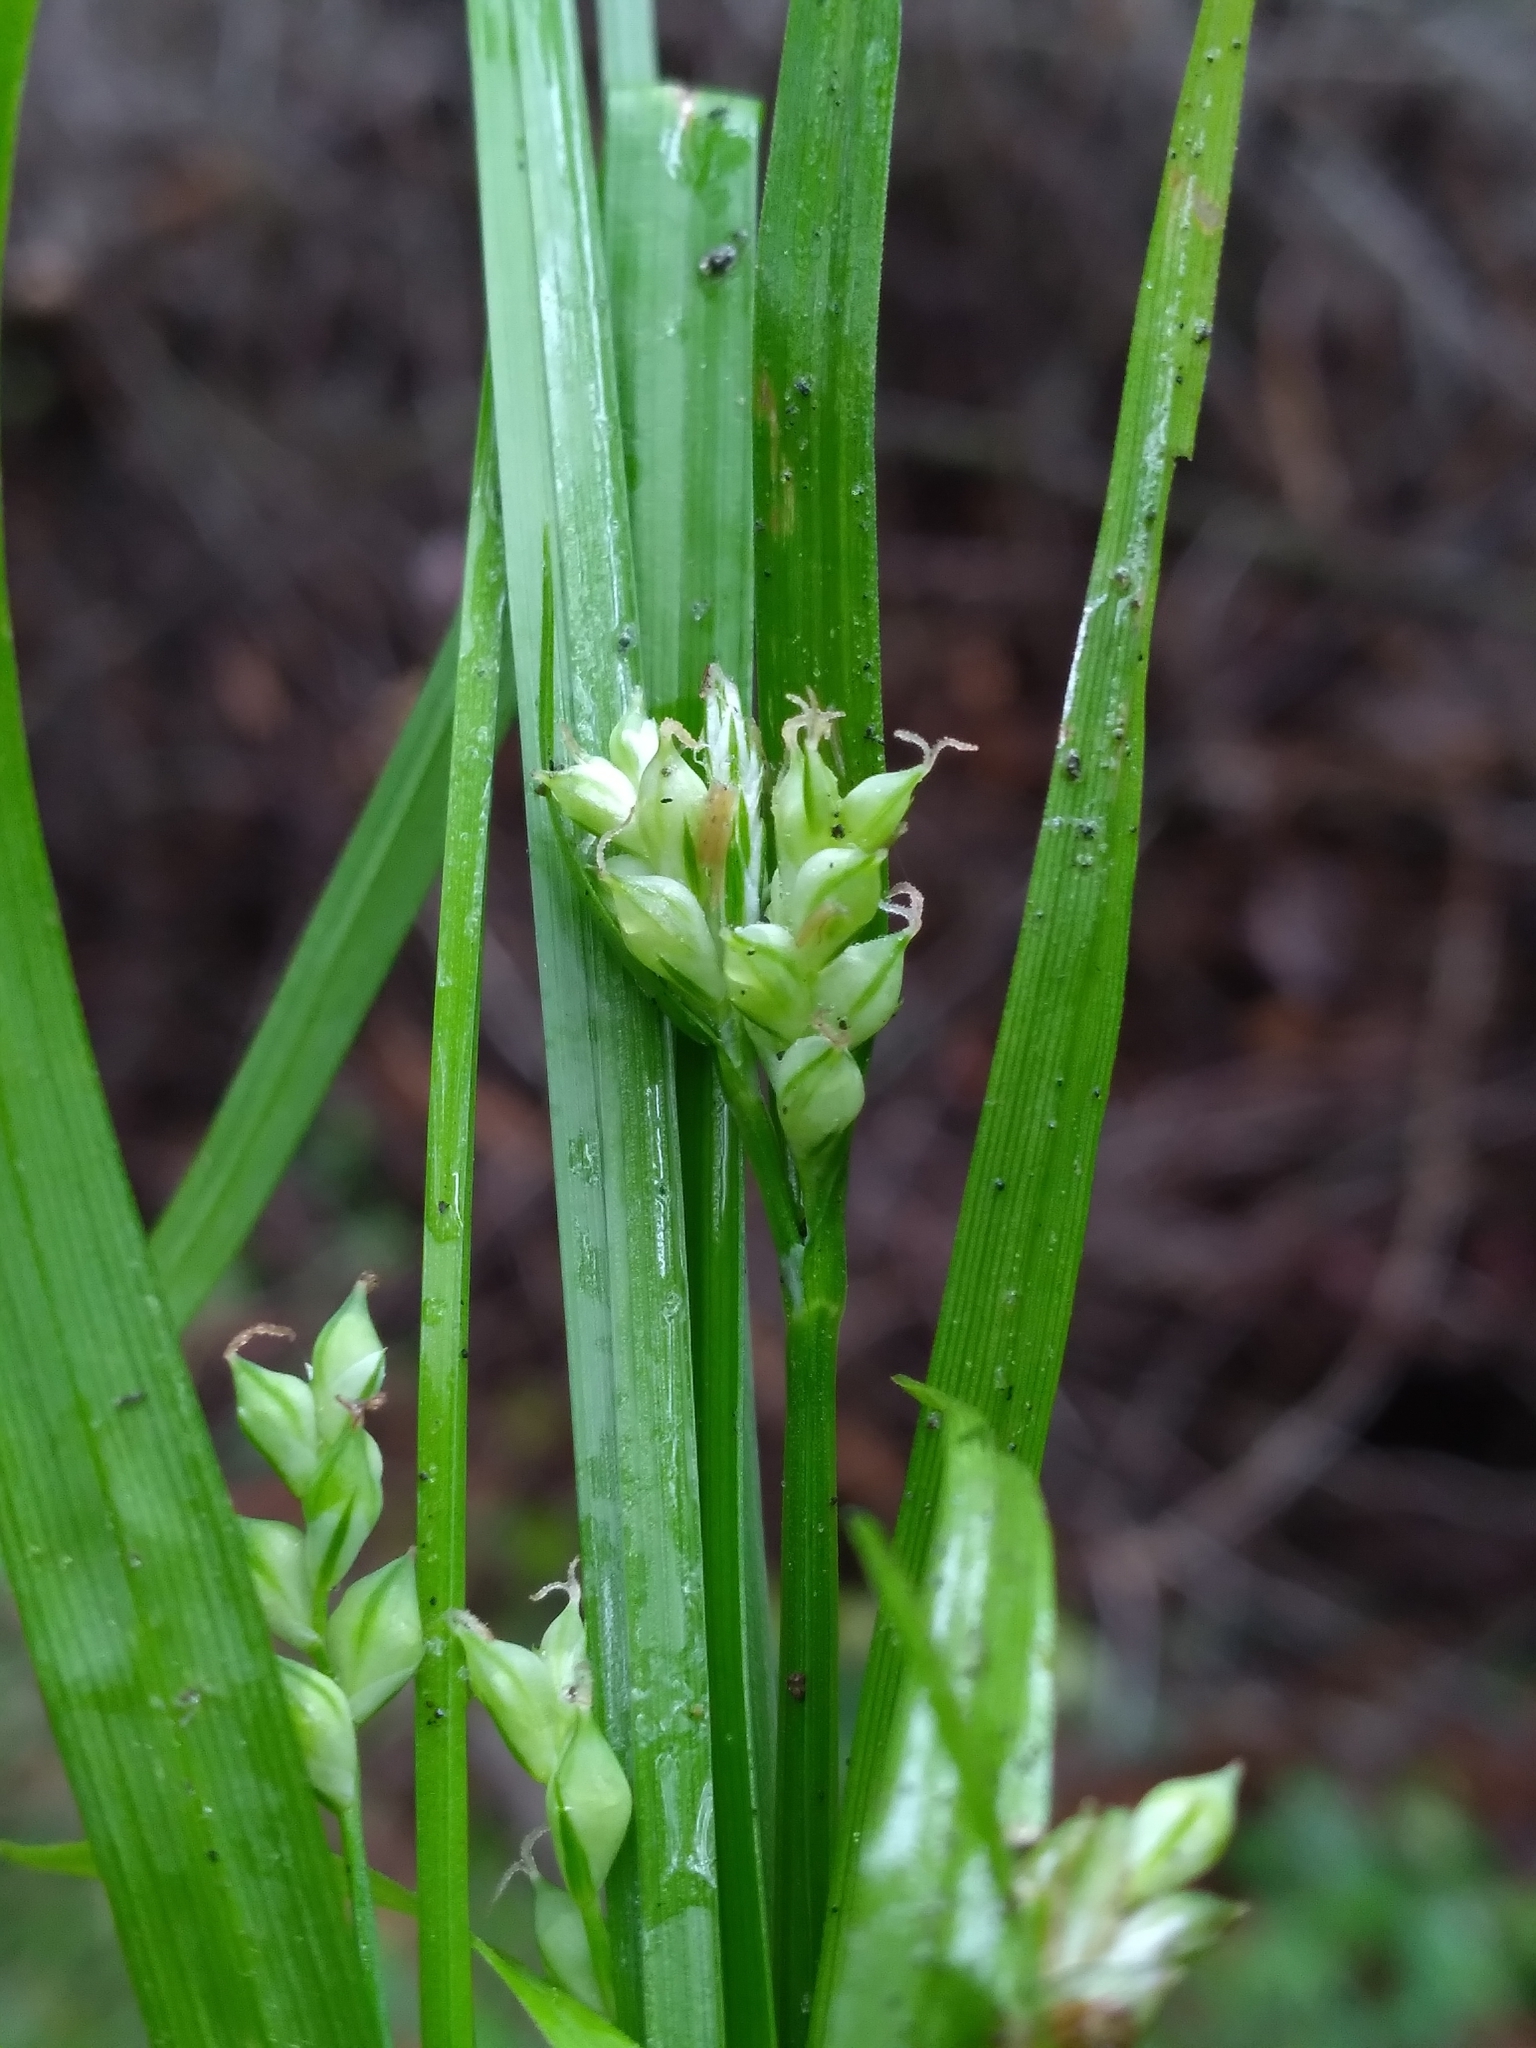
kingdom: Plantae
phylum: Tracheophyta
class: Liliopsida
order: Poales
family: Cyperaceae
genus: Carex
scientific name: Carex crebriflora
